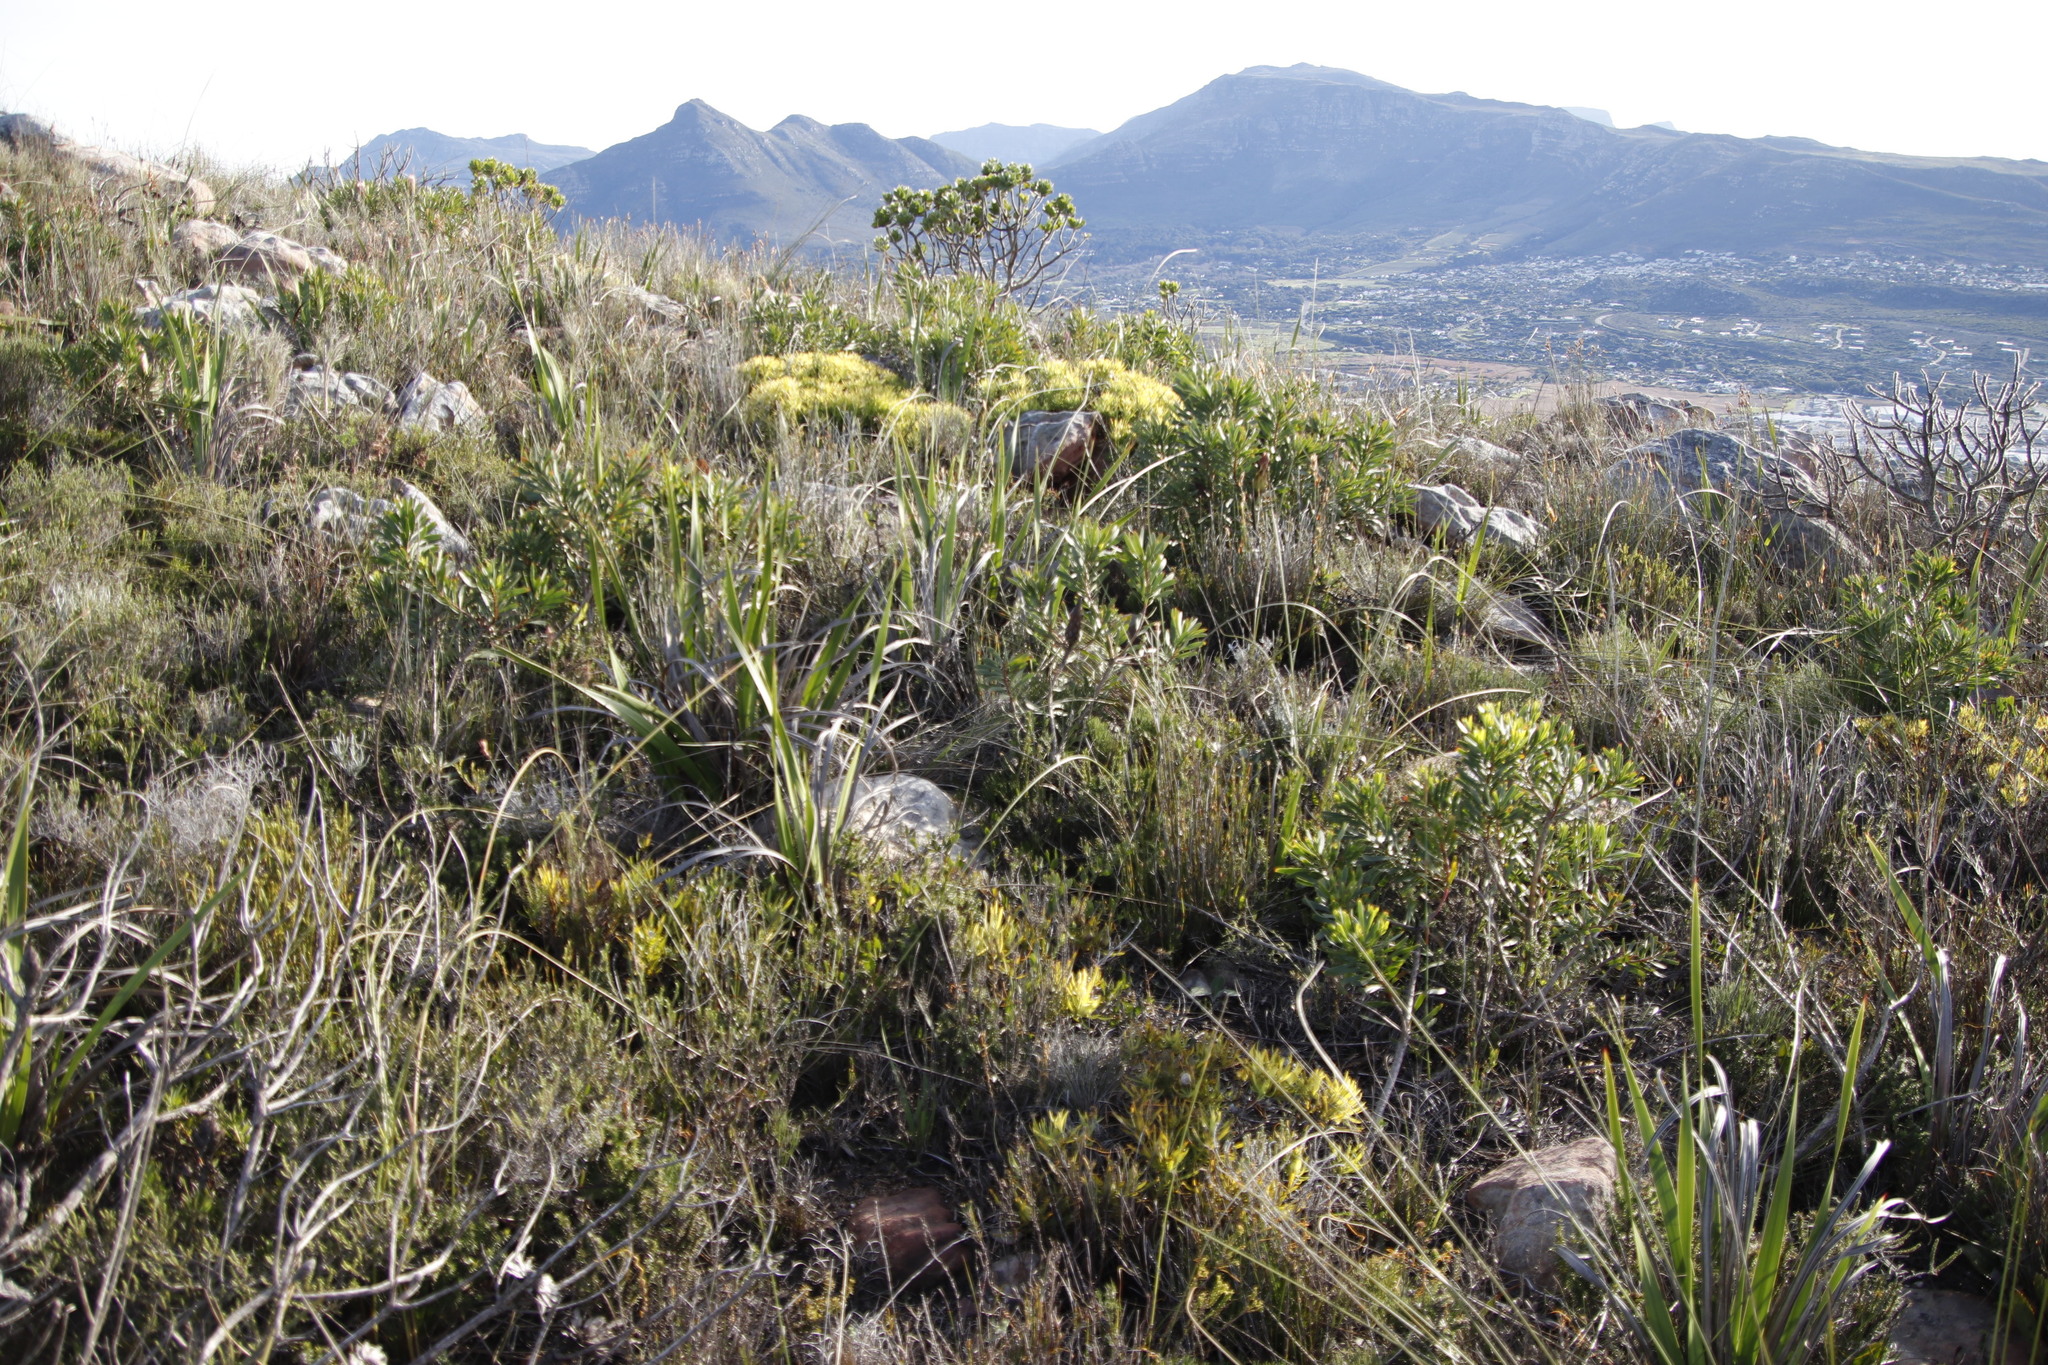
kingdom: Plantae
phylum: Tracheophyta
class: Magnoliopsida
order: Proteales
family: Proteaceae
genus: Leucadendron
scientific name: Leucadendron salignum
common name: Common sunshine conebush
